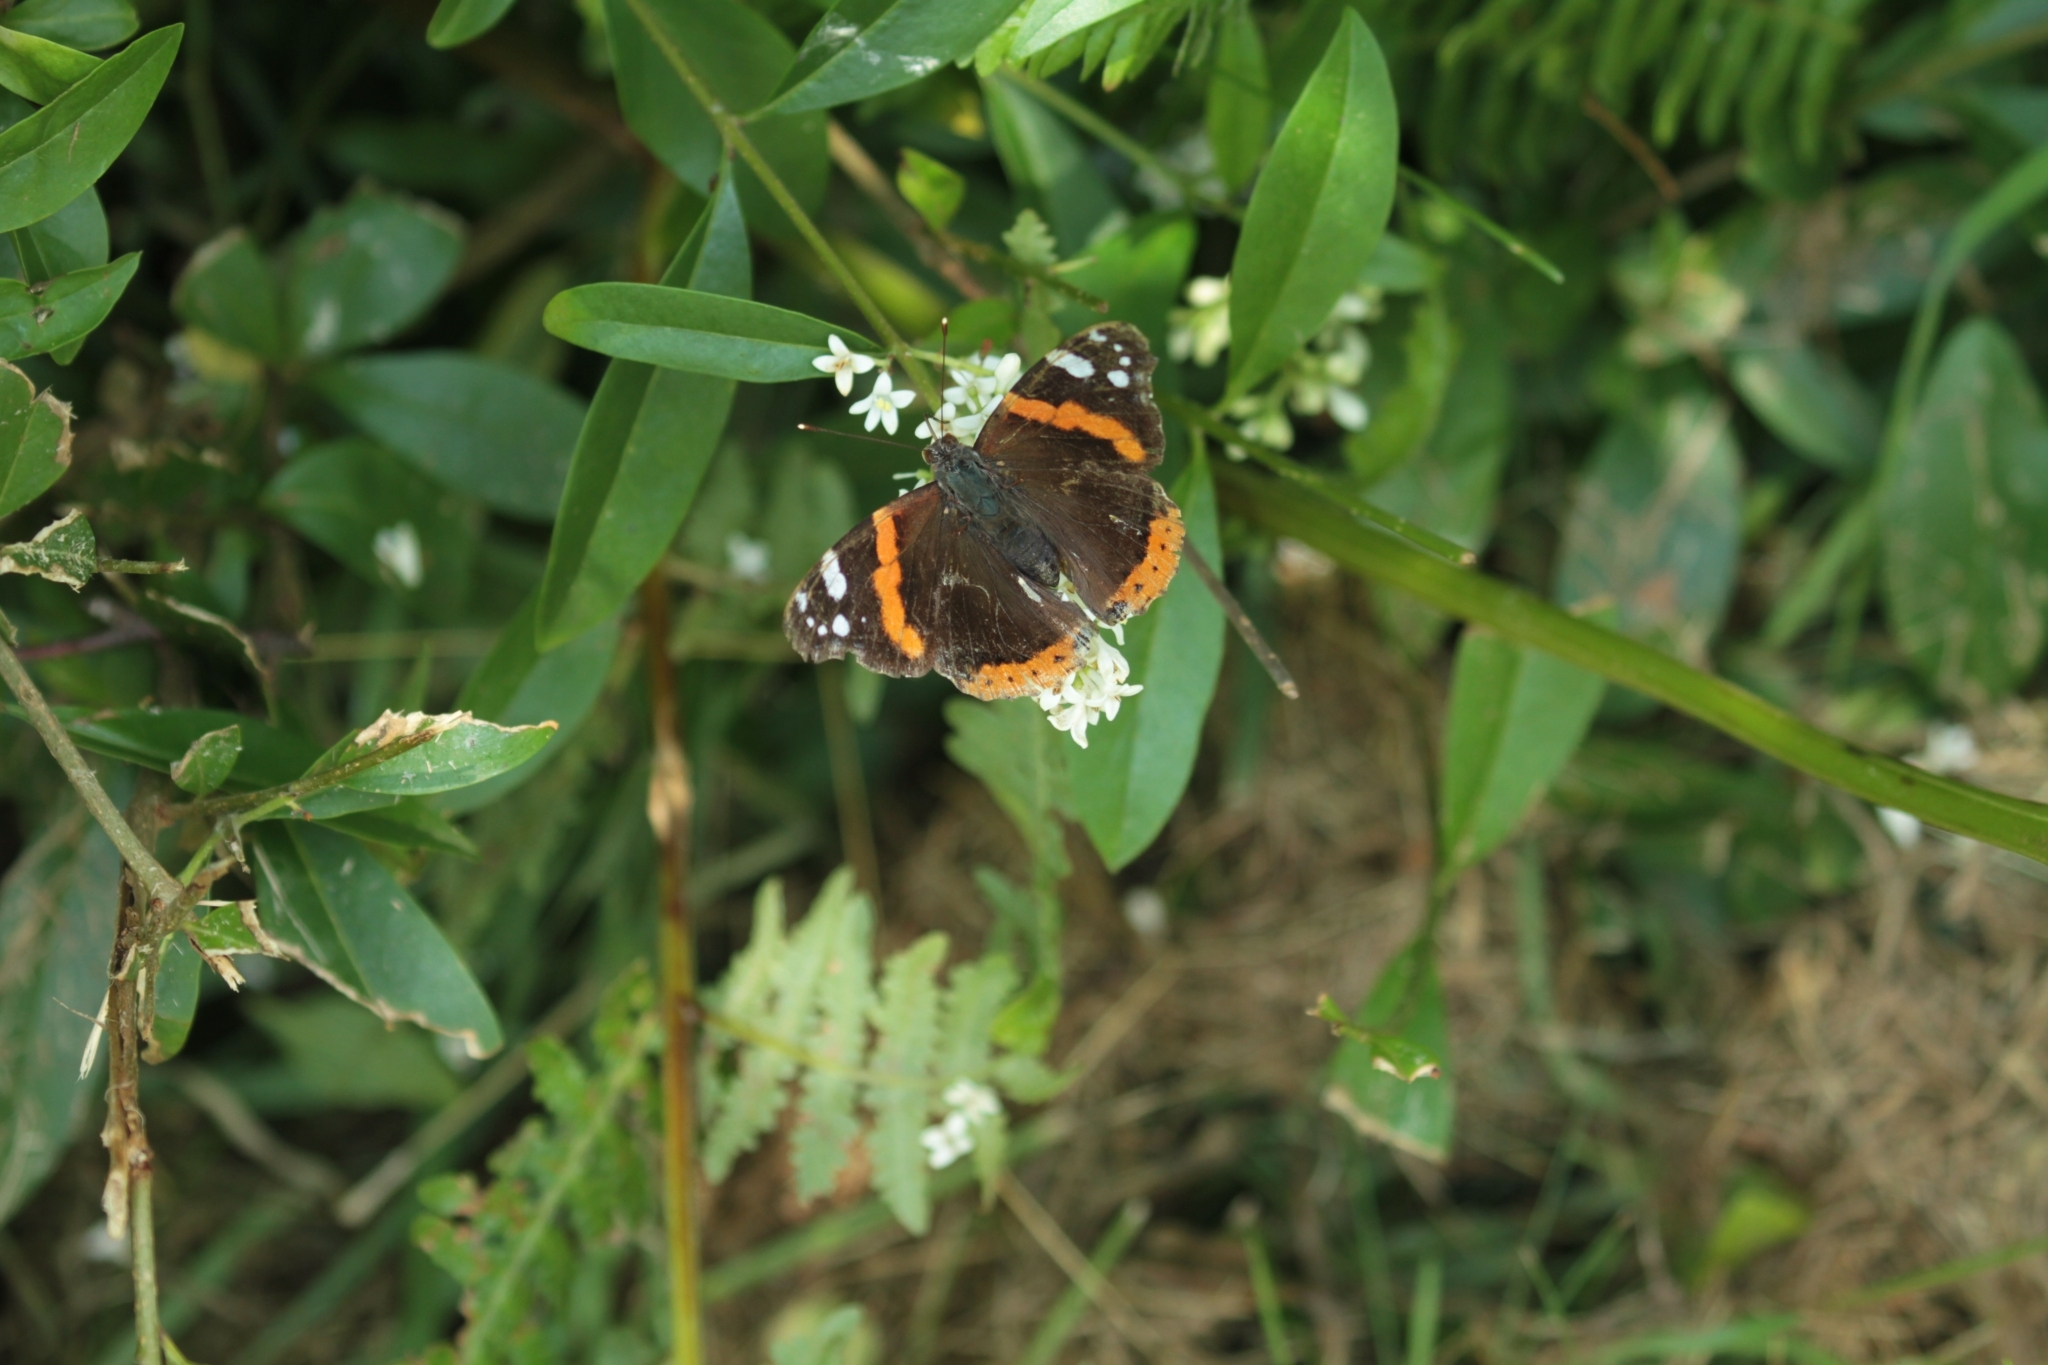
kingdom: Animalia
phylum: Arthropoda
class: Insecta
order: Lepidoptera
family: Nymphalidae
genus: Vanessa
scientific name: Vanessa atalanta
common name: Red admiral
